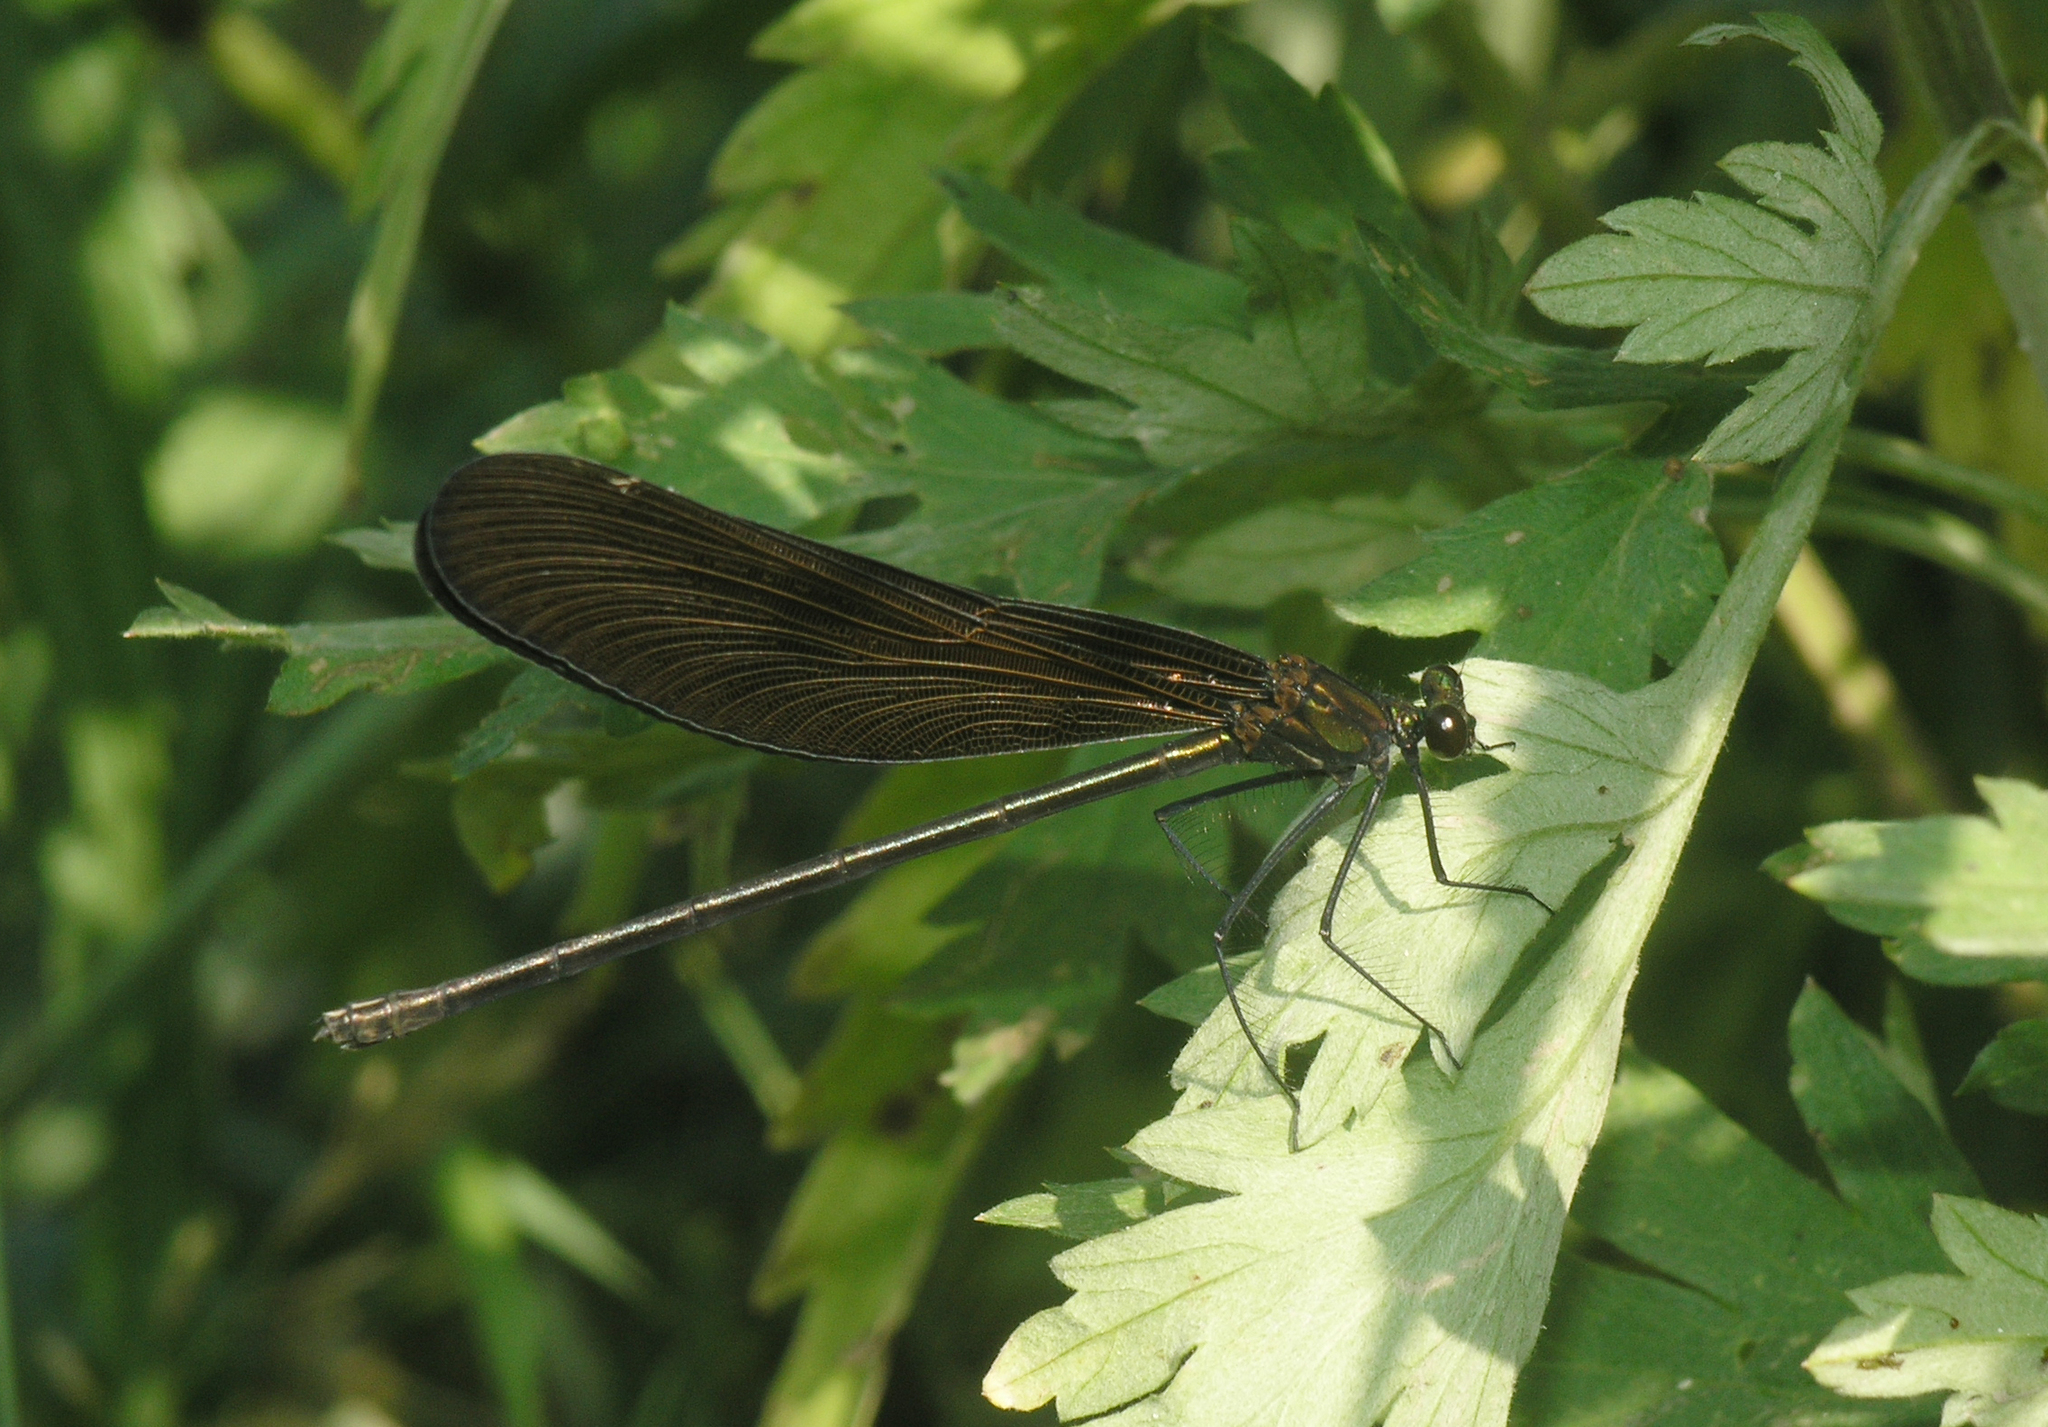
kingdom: Animalia
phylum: Arthropoda
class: Insecta
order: Odonata
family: Calopterygidae
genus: Atrocalopteryx
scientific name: Atrocalopteryx atrata
